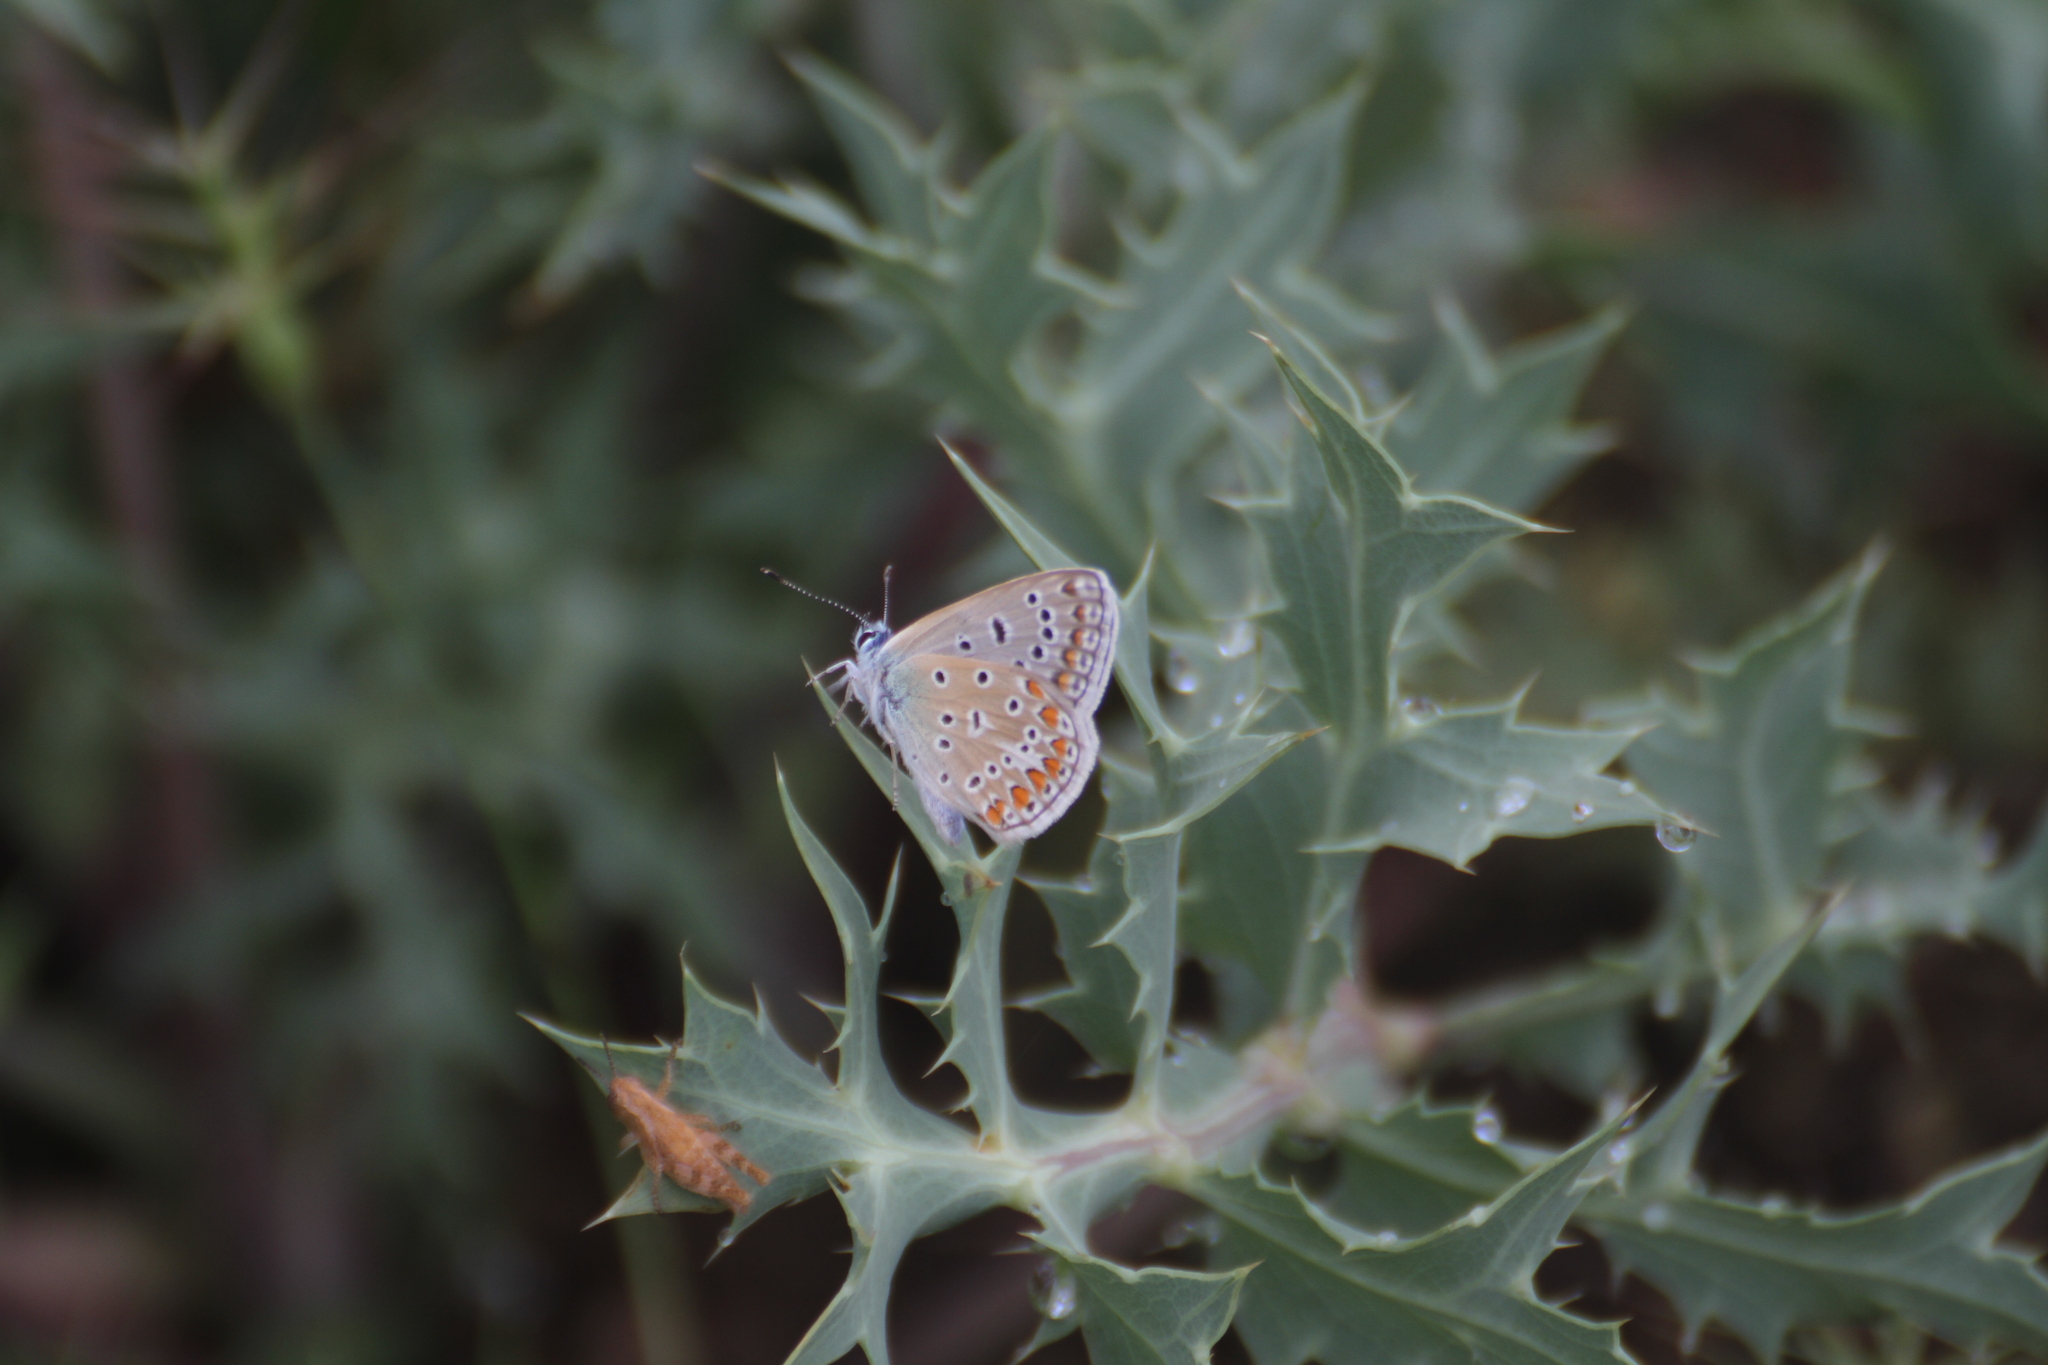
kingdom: Animalia
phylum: Arthropoda
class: Insecta
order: Lepidoptera
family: Lycaenidae
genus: Polyommatus
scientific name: Polyommatus icarus
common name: Common blue
